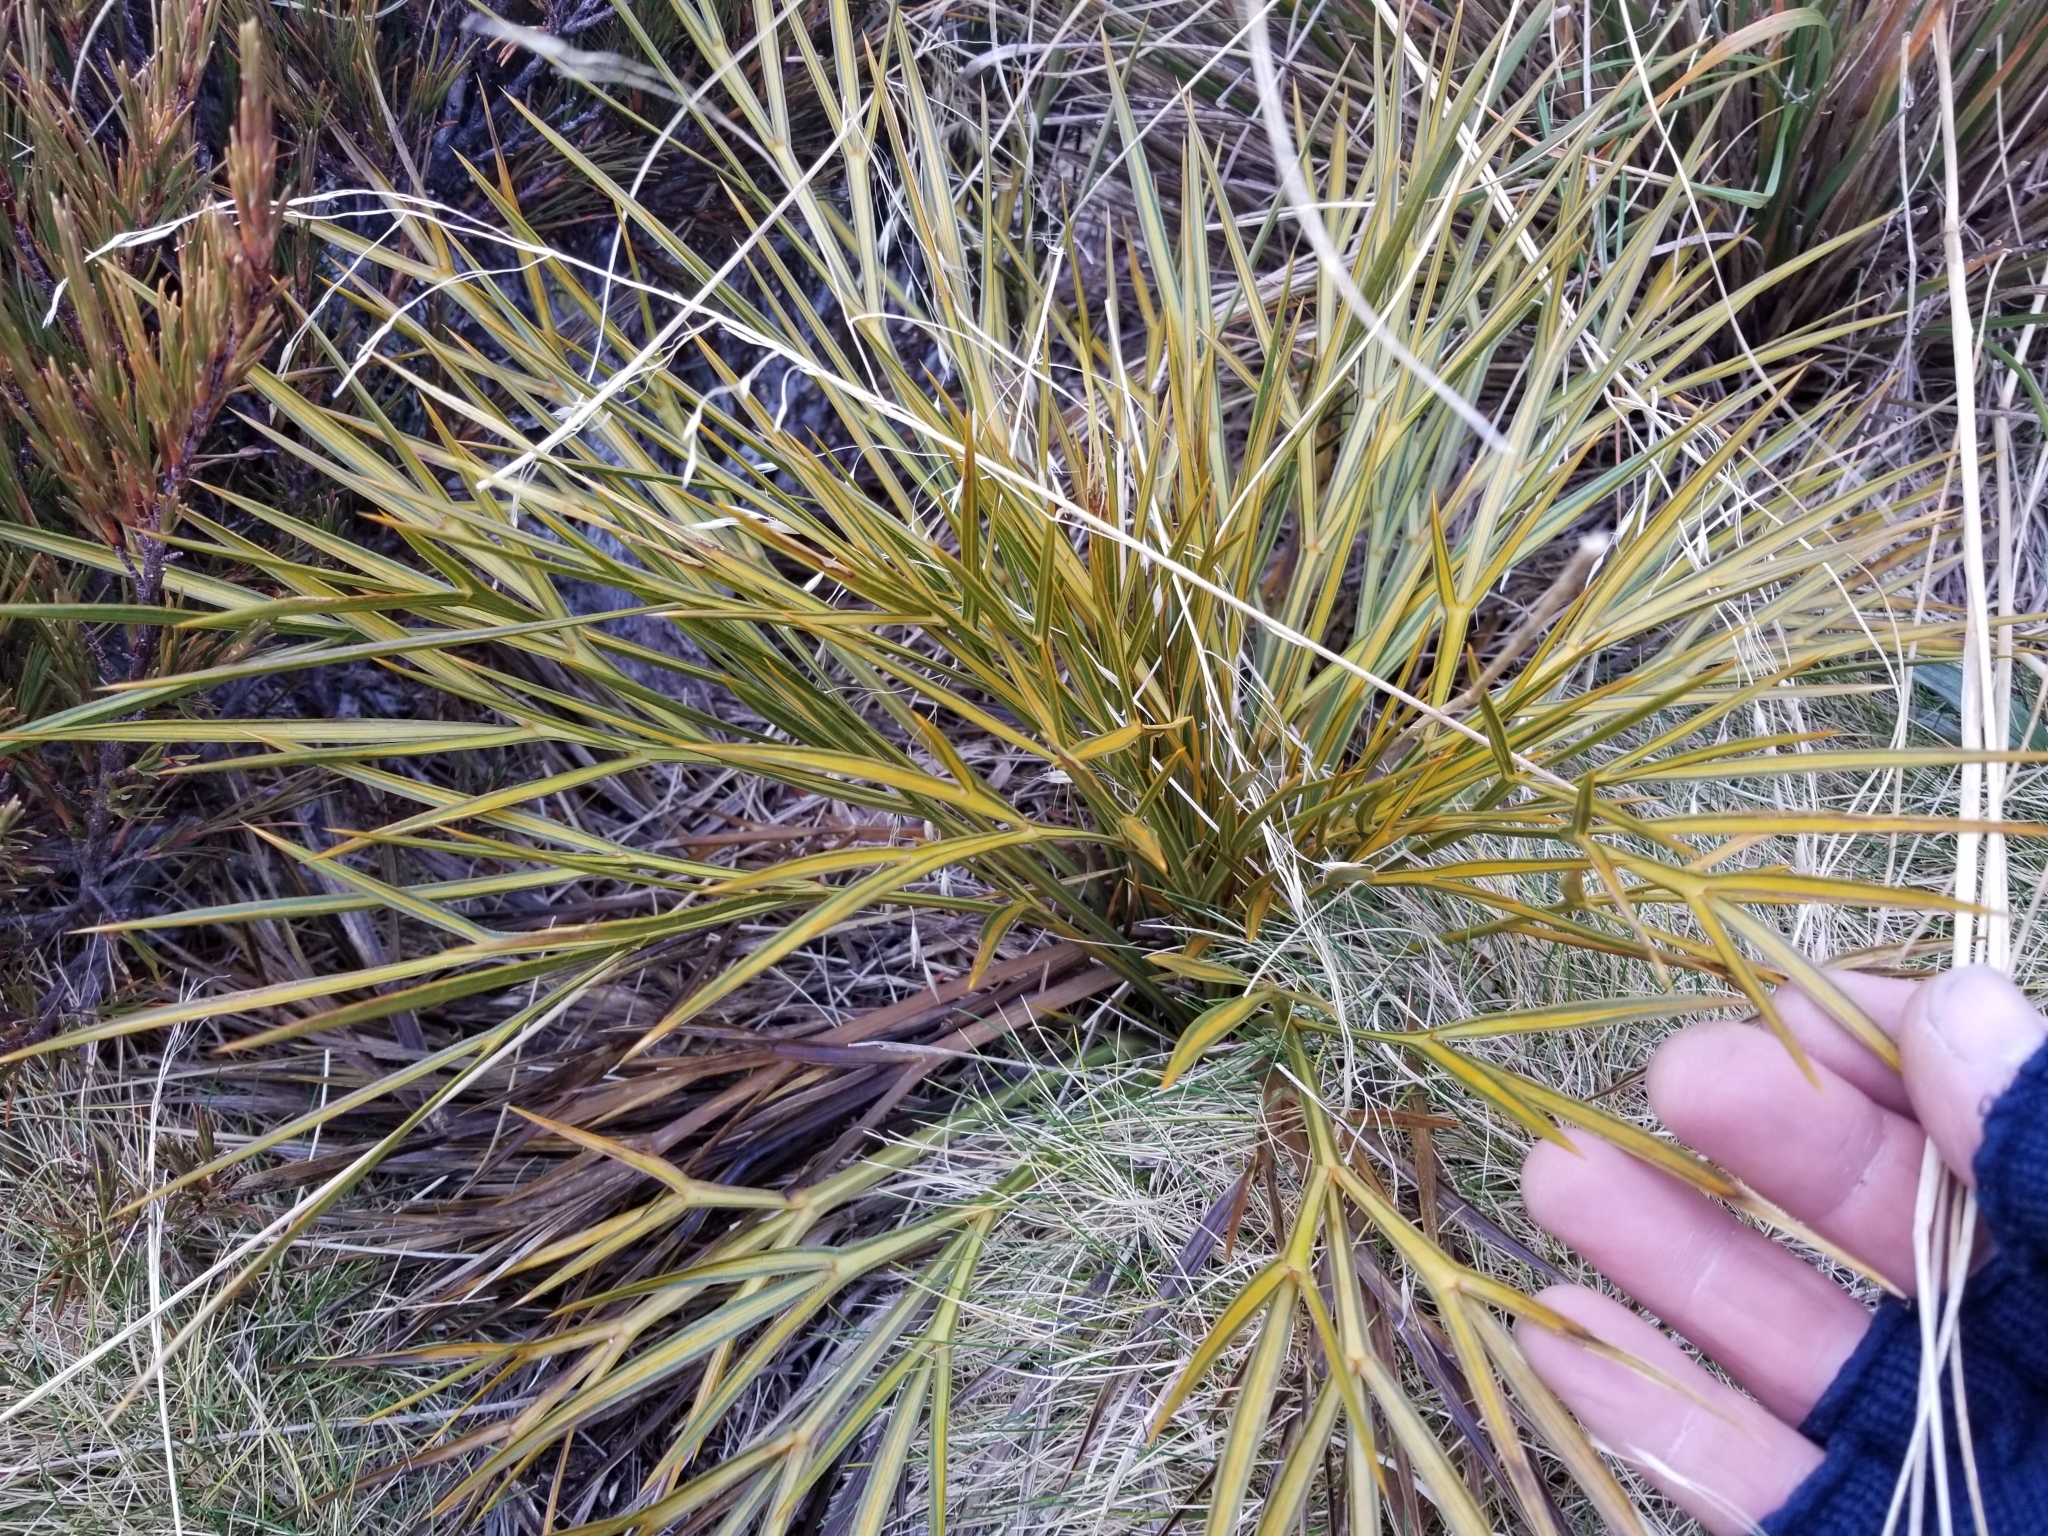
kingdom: Plantae
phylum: Tracheophyta
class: Magnoliopsida
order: Apiales
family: Apiaceae
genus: Aciphylla
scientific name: Aciphylla indurata
